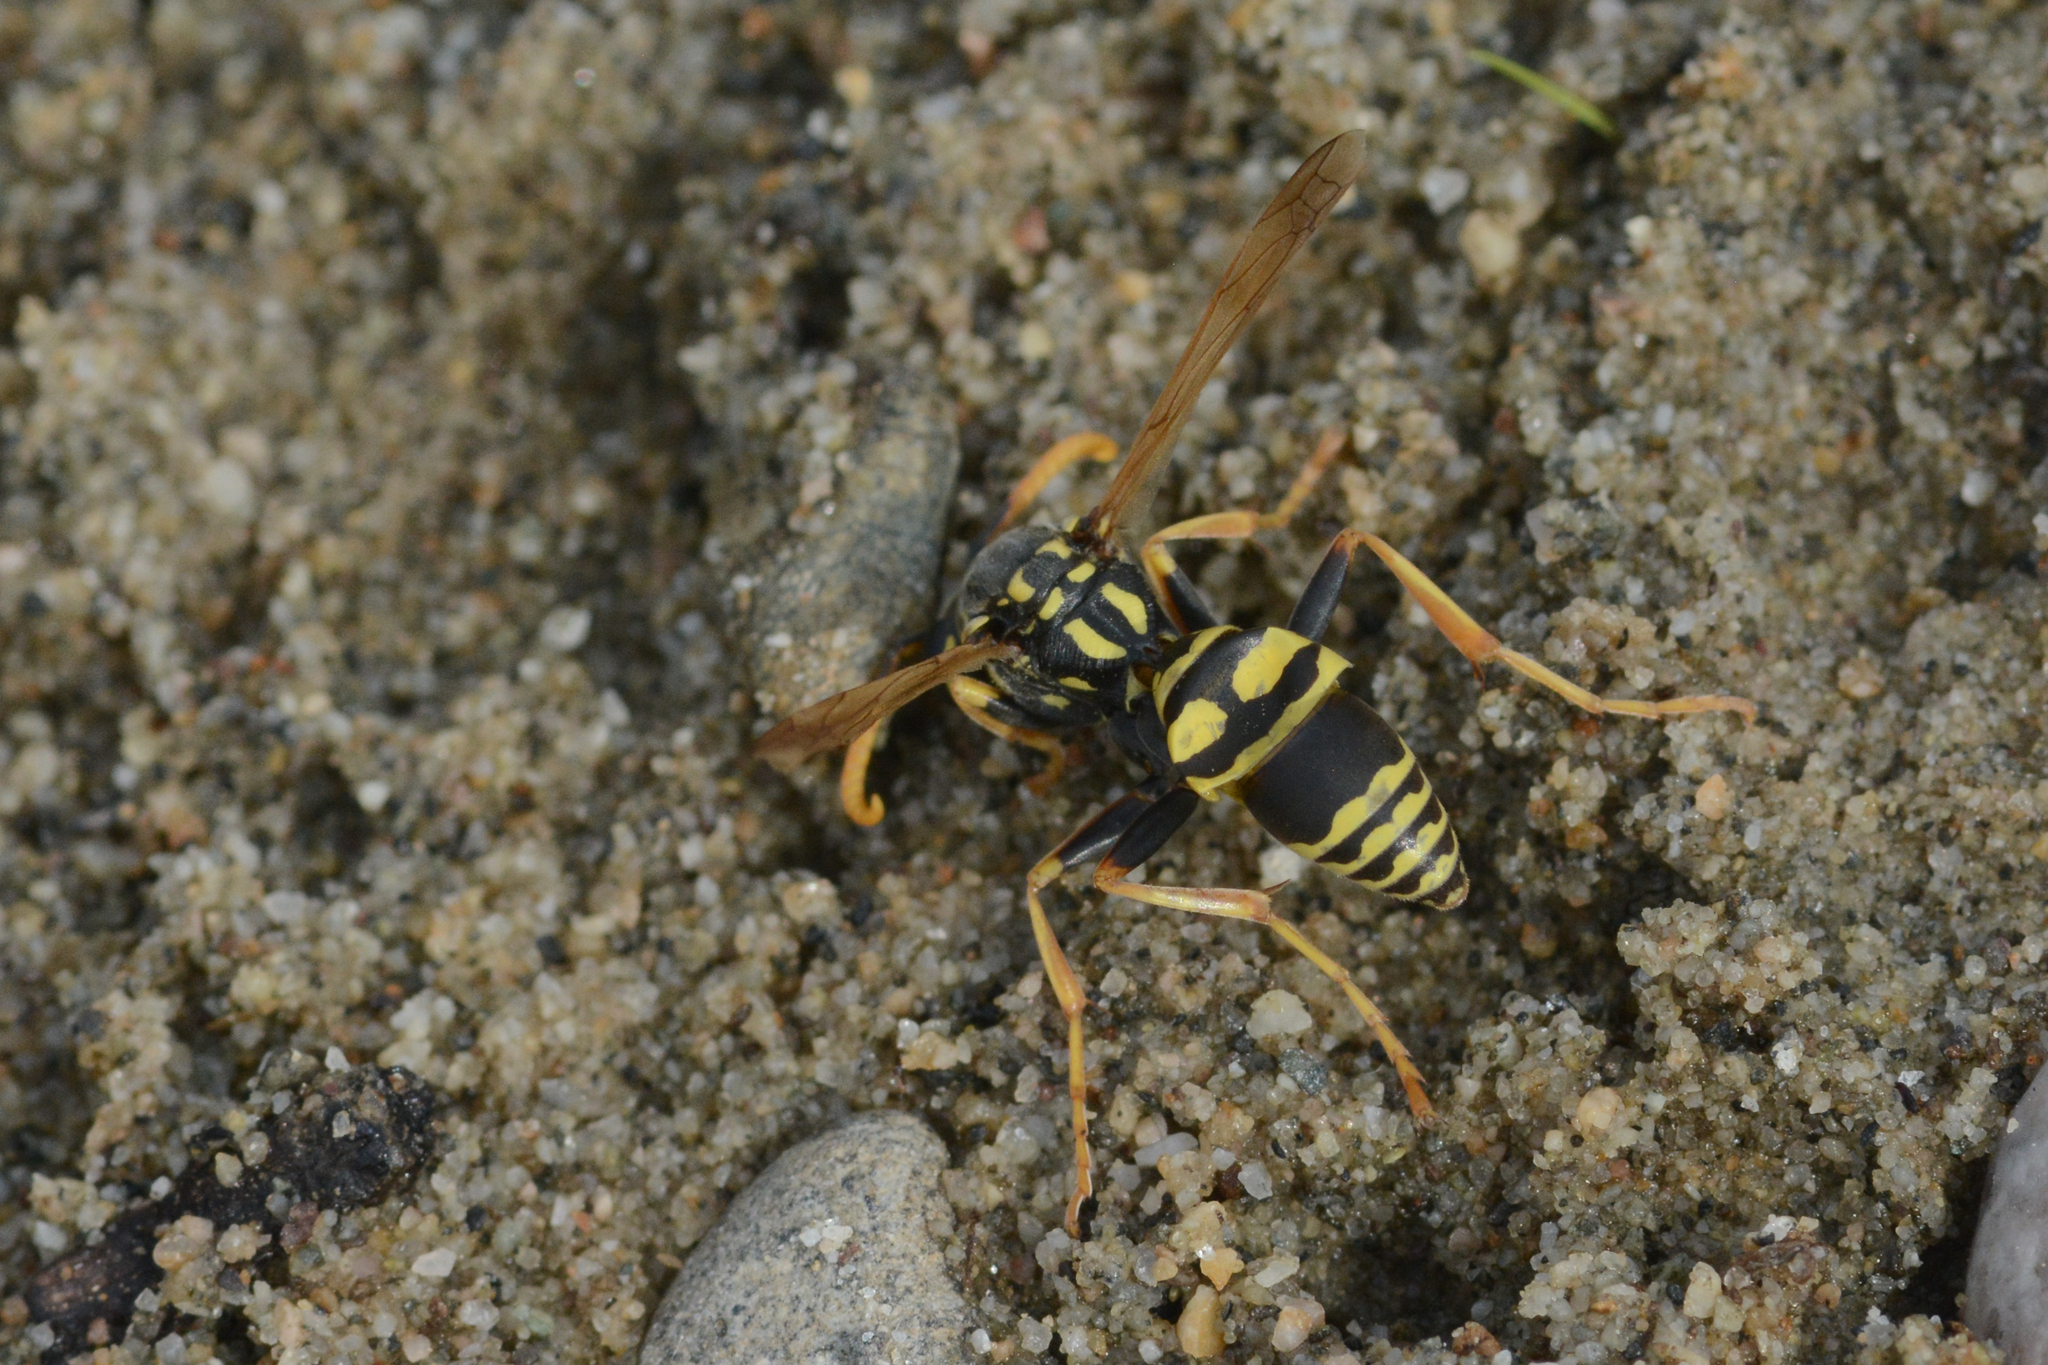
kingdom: Animalia
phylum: Arthropoda
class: Insecta
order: Hymenoptera
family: Eumenidae
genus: Polistes
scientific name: Polistes dominula
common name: Paper wasp
